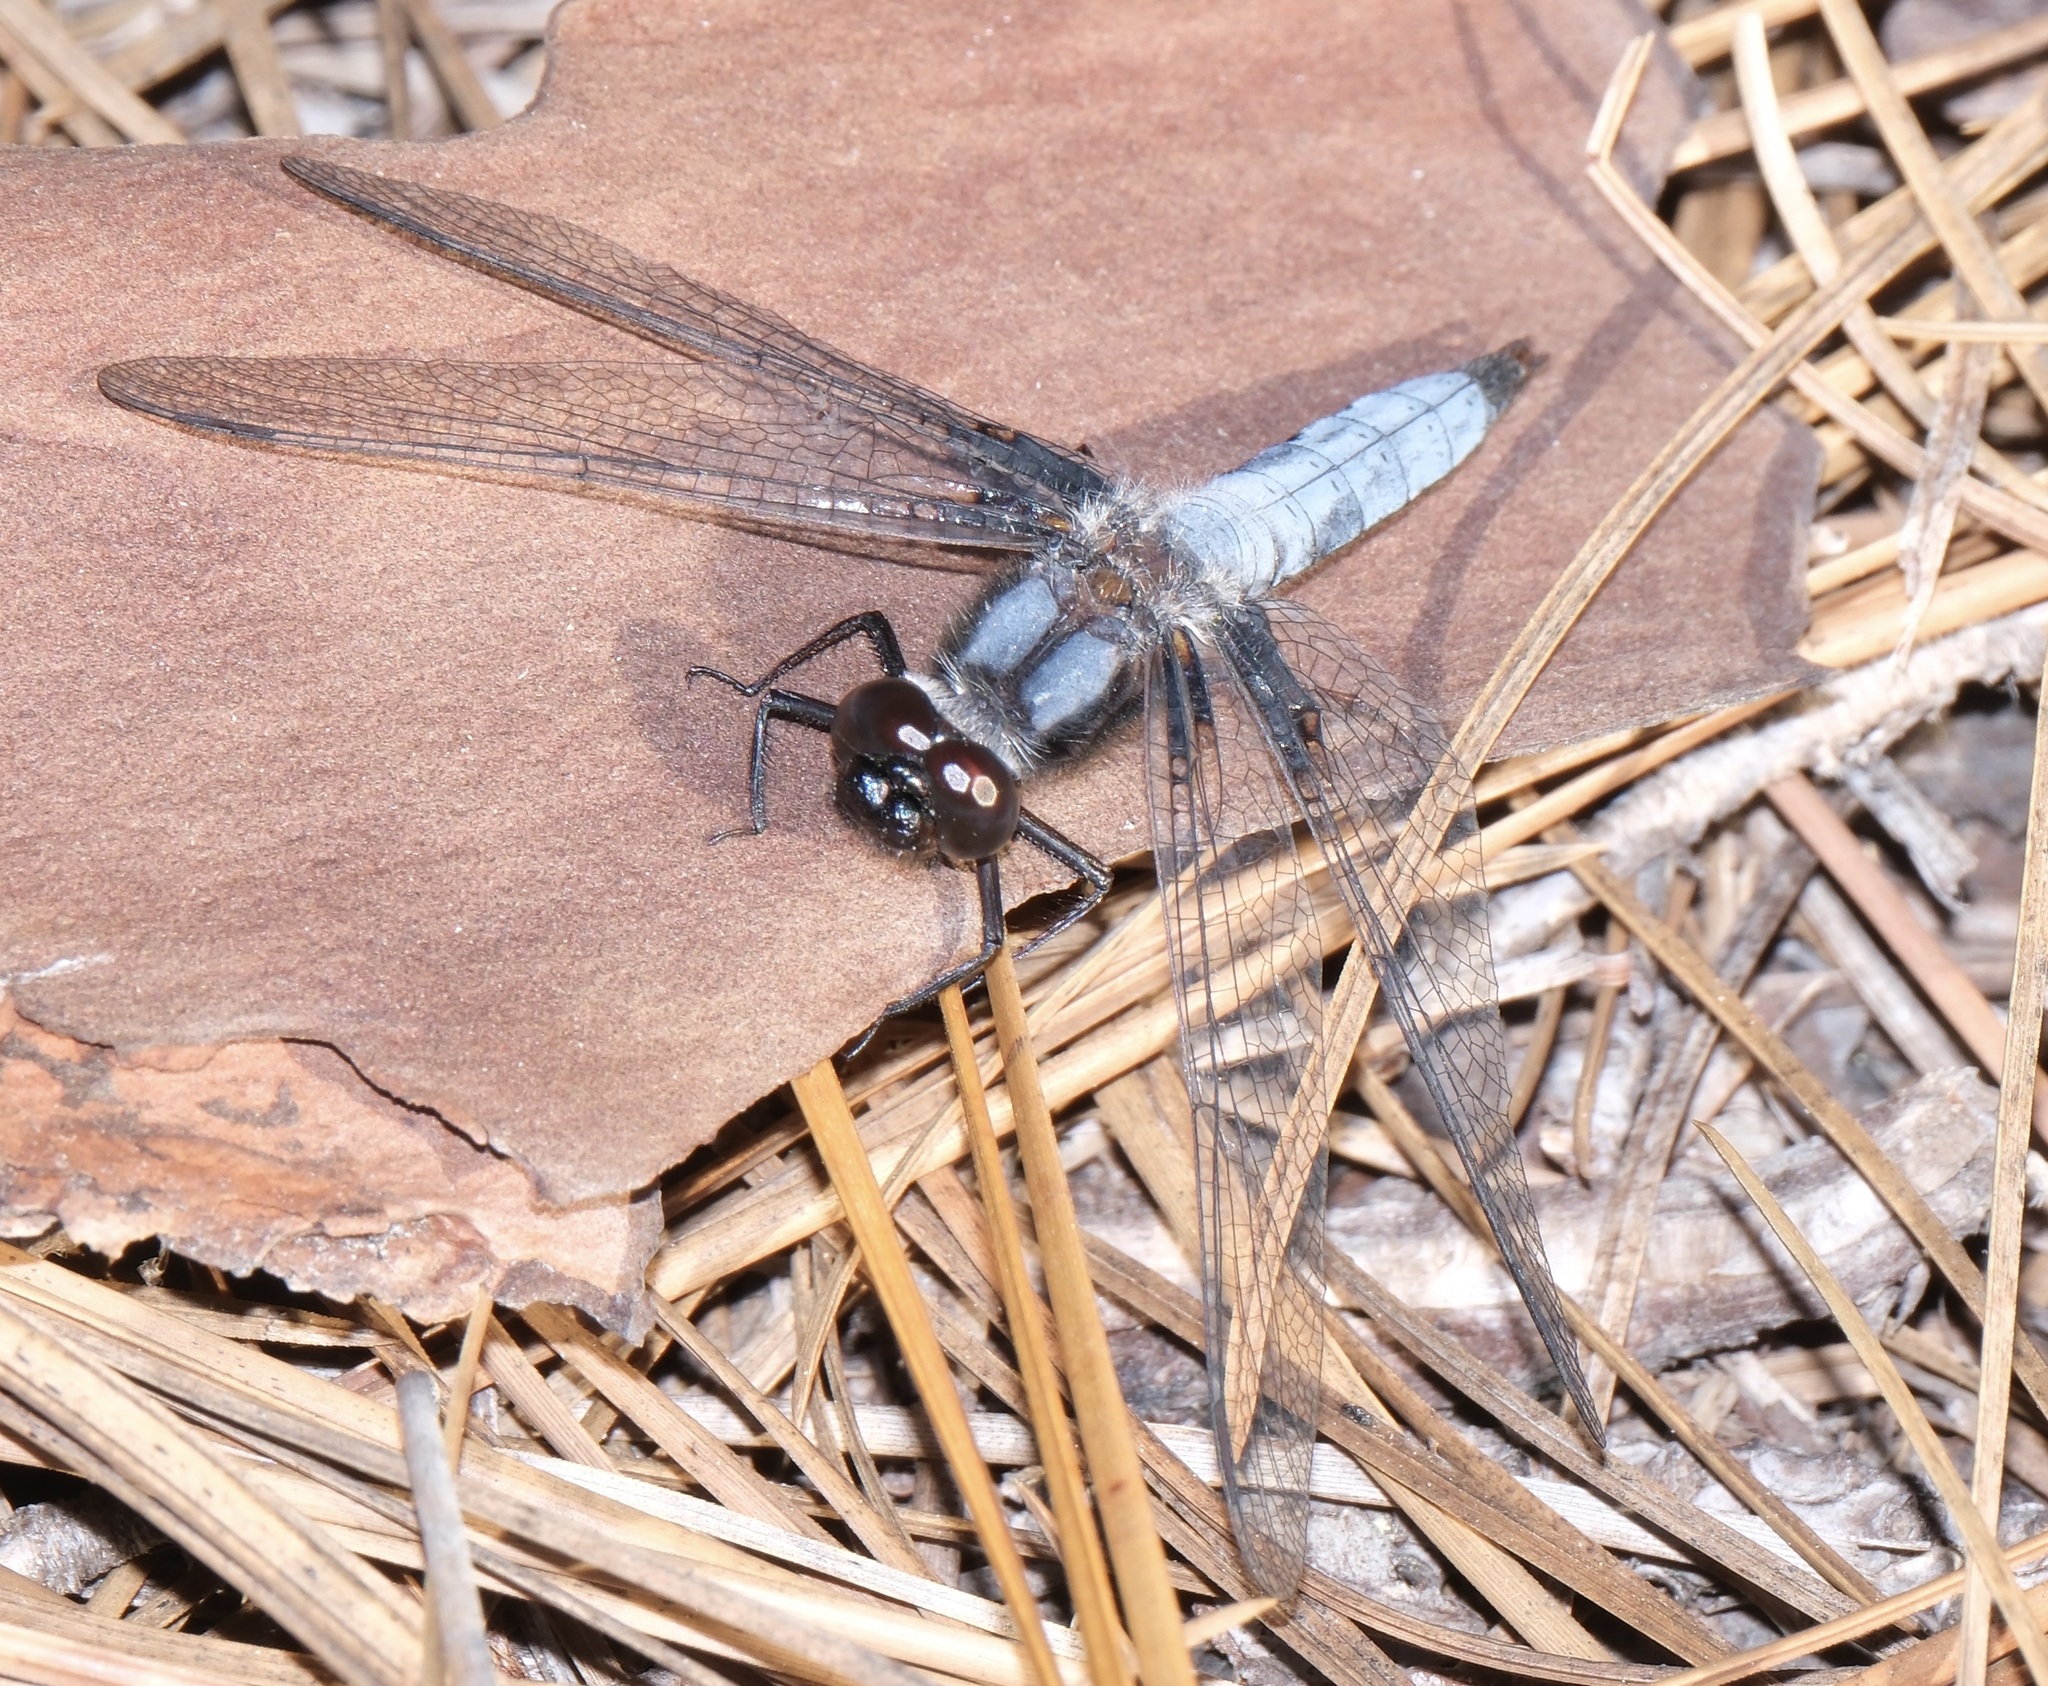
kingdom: Animalia
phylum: Arthropoda
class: Insecta
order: Odonata
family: Libellulidae
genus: Ladona
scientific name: Ladona deplanata
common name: Blue corporal
